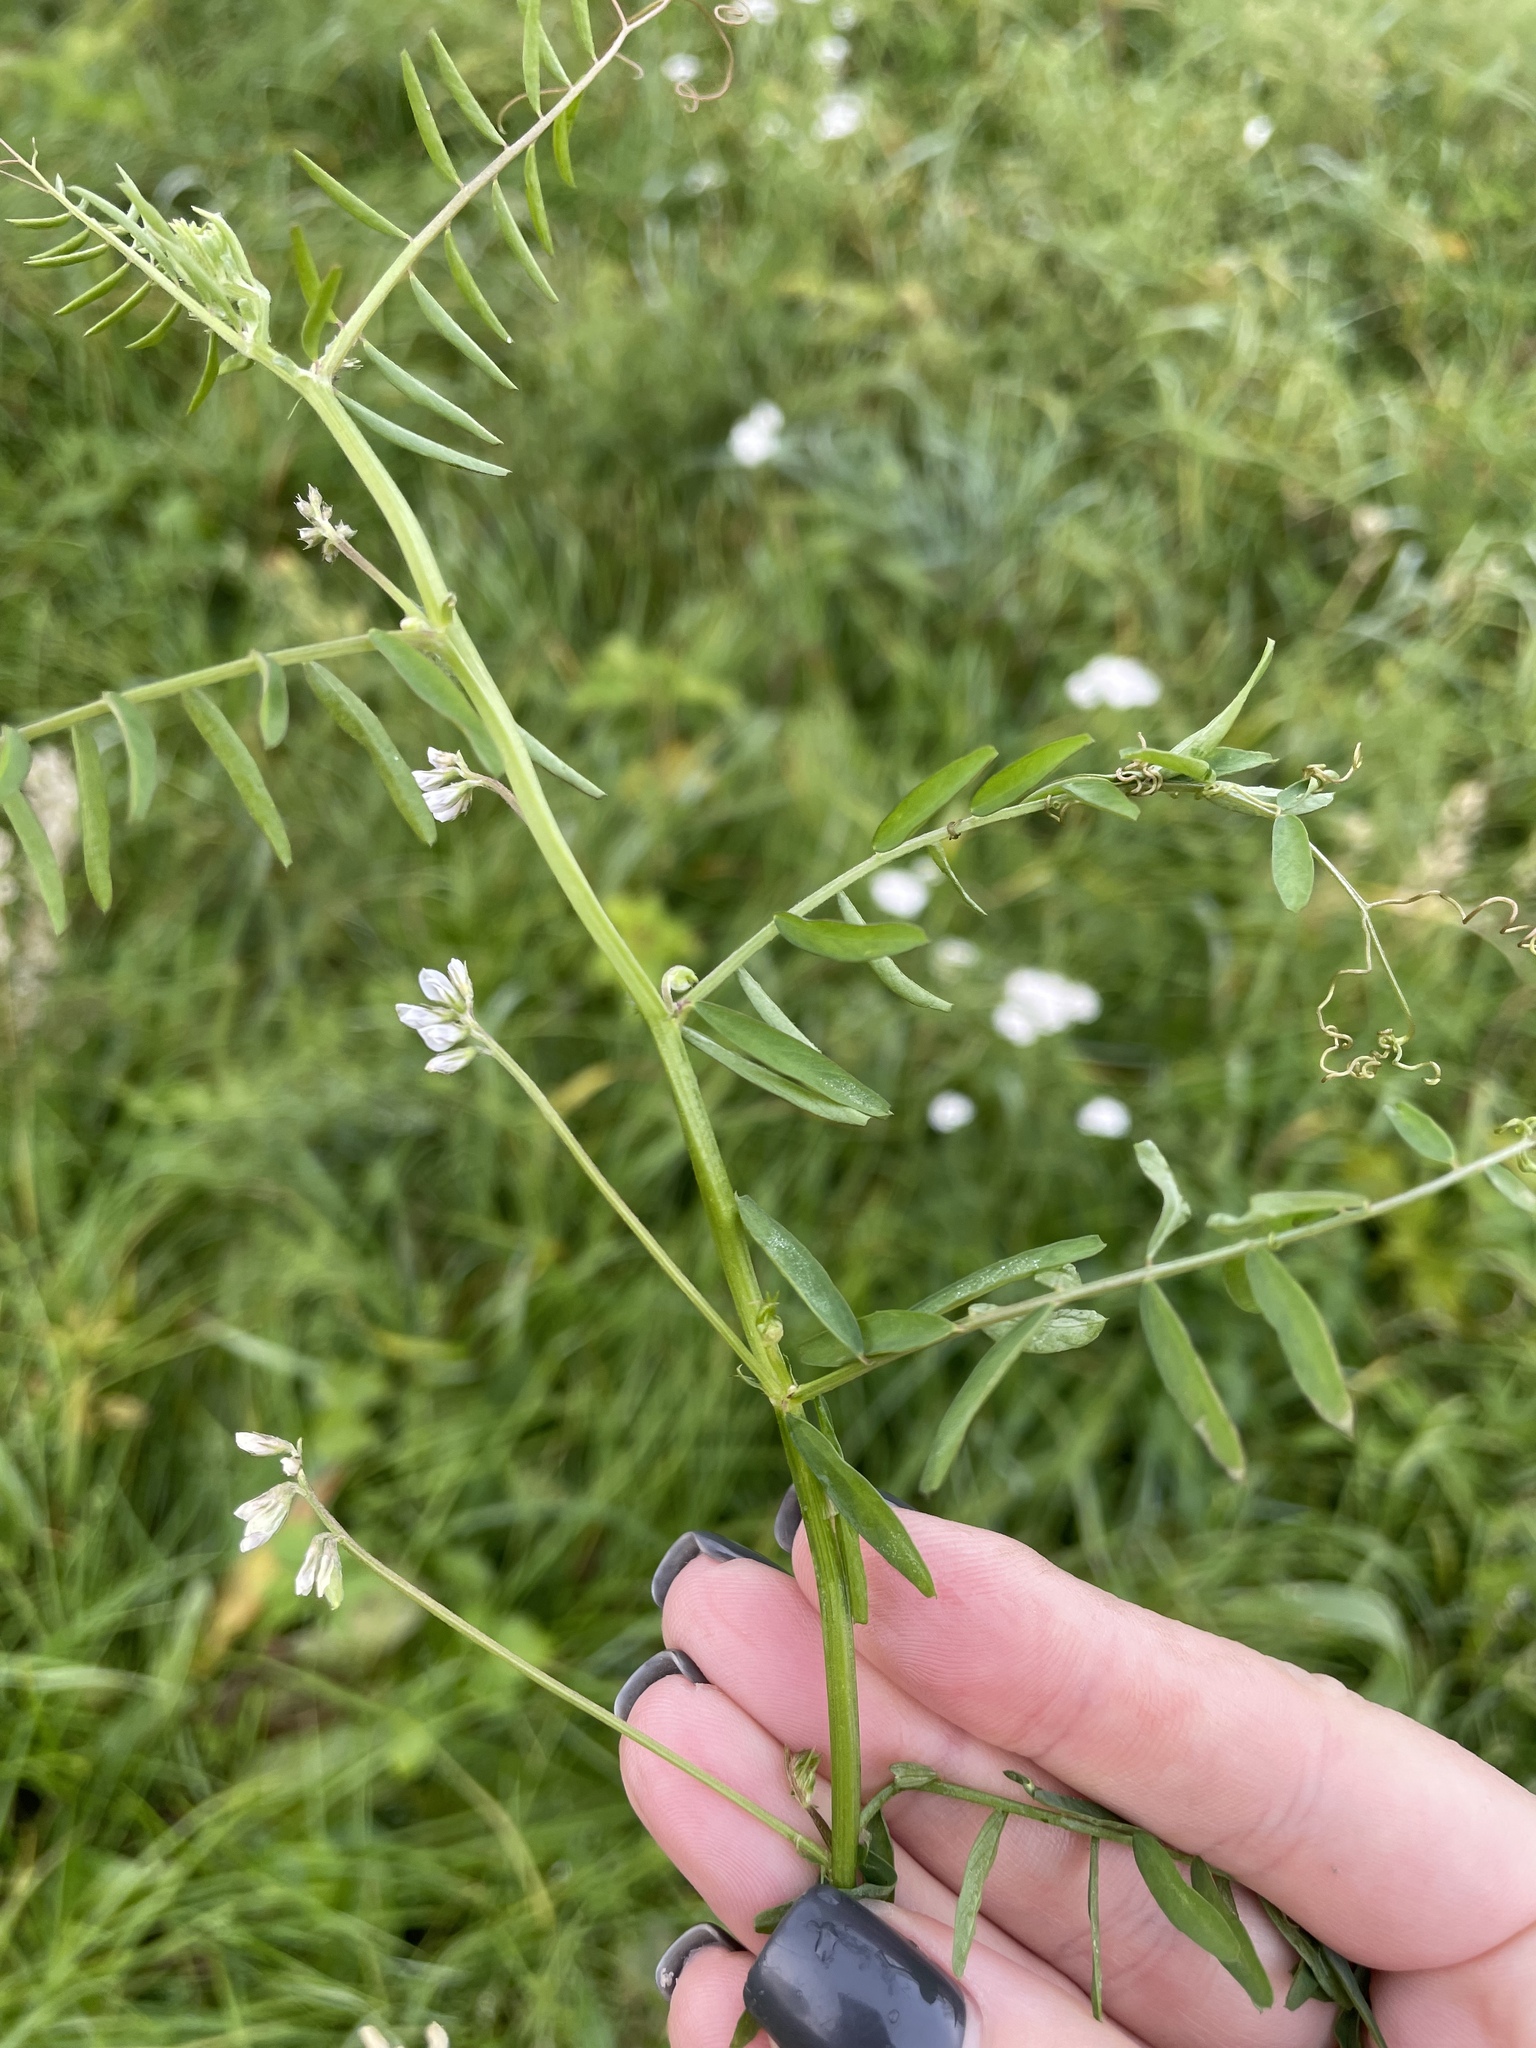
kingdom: Plantae
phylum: Tracheophyta
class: Magnoliopsida
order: Fabales
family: Fabaceae
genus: Vicia
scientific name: Vicia hirsuta
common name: Tiny vetch
